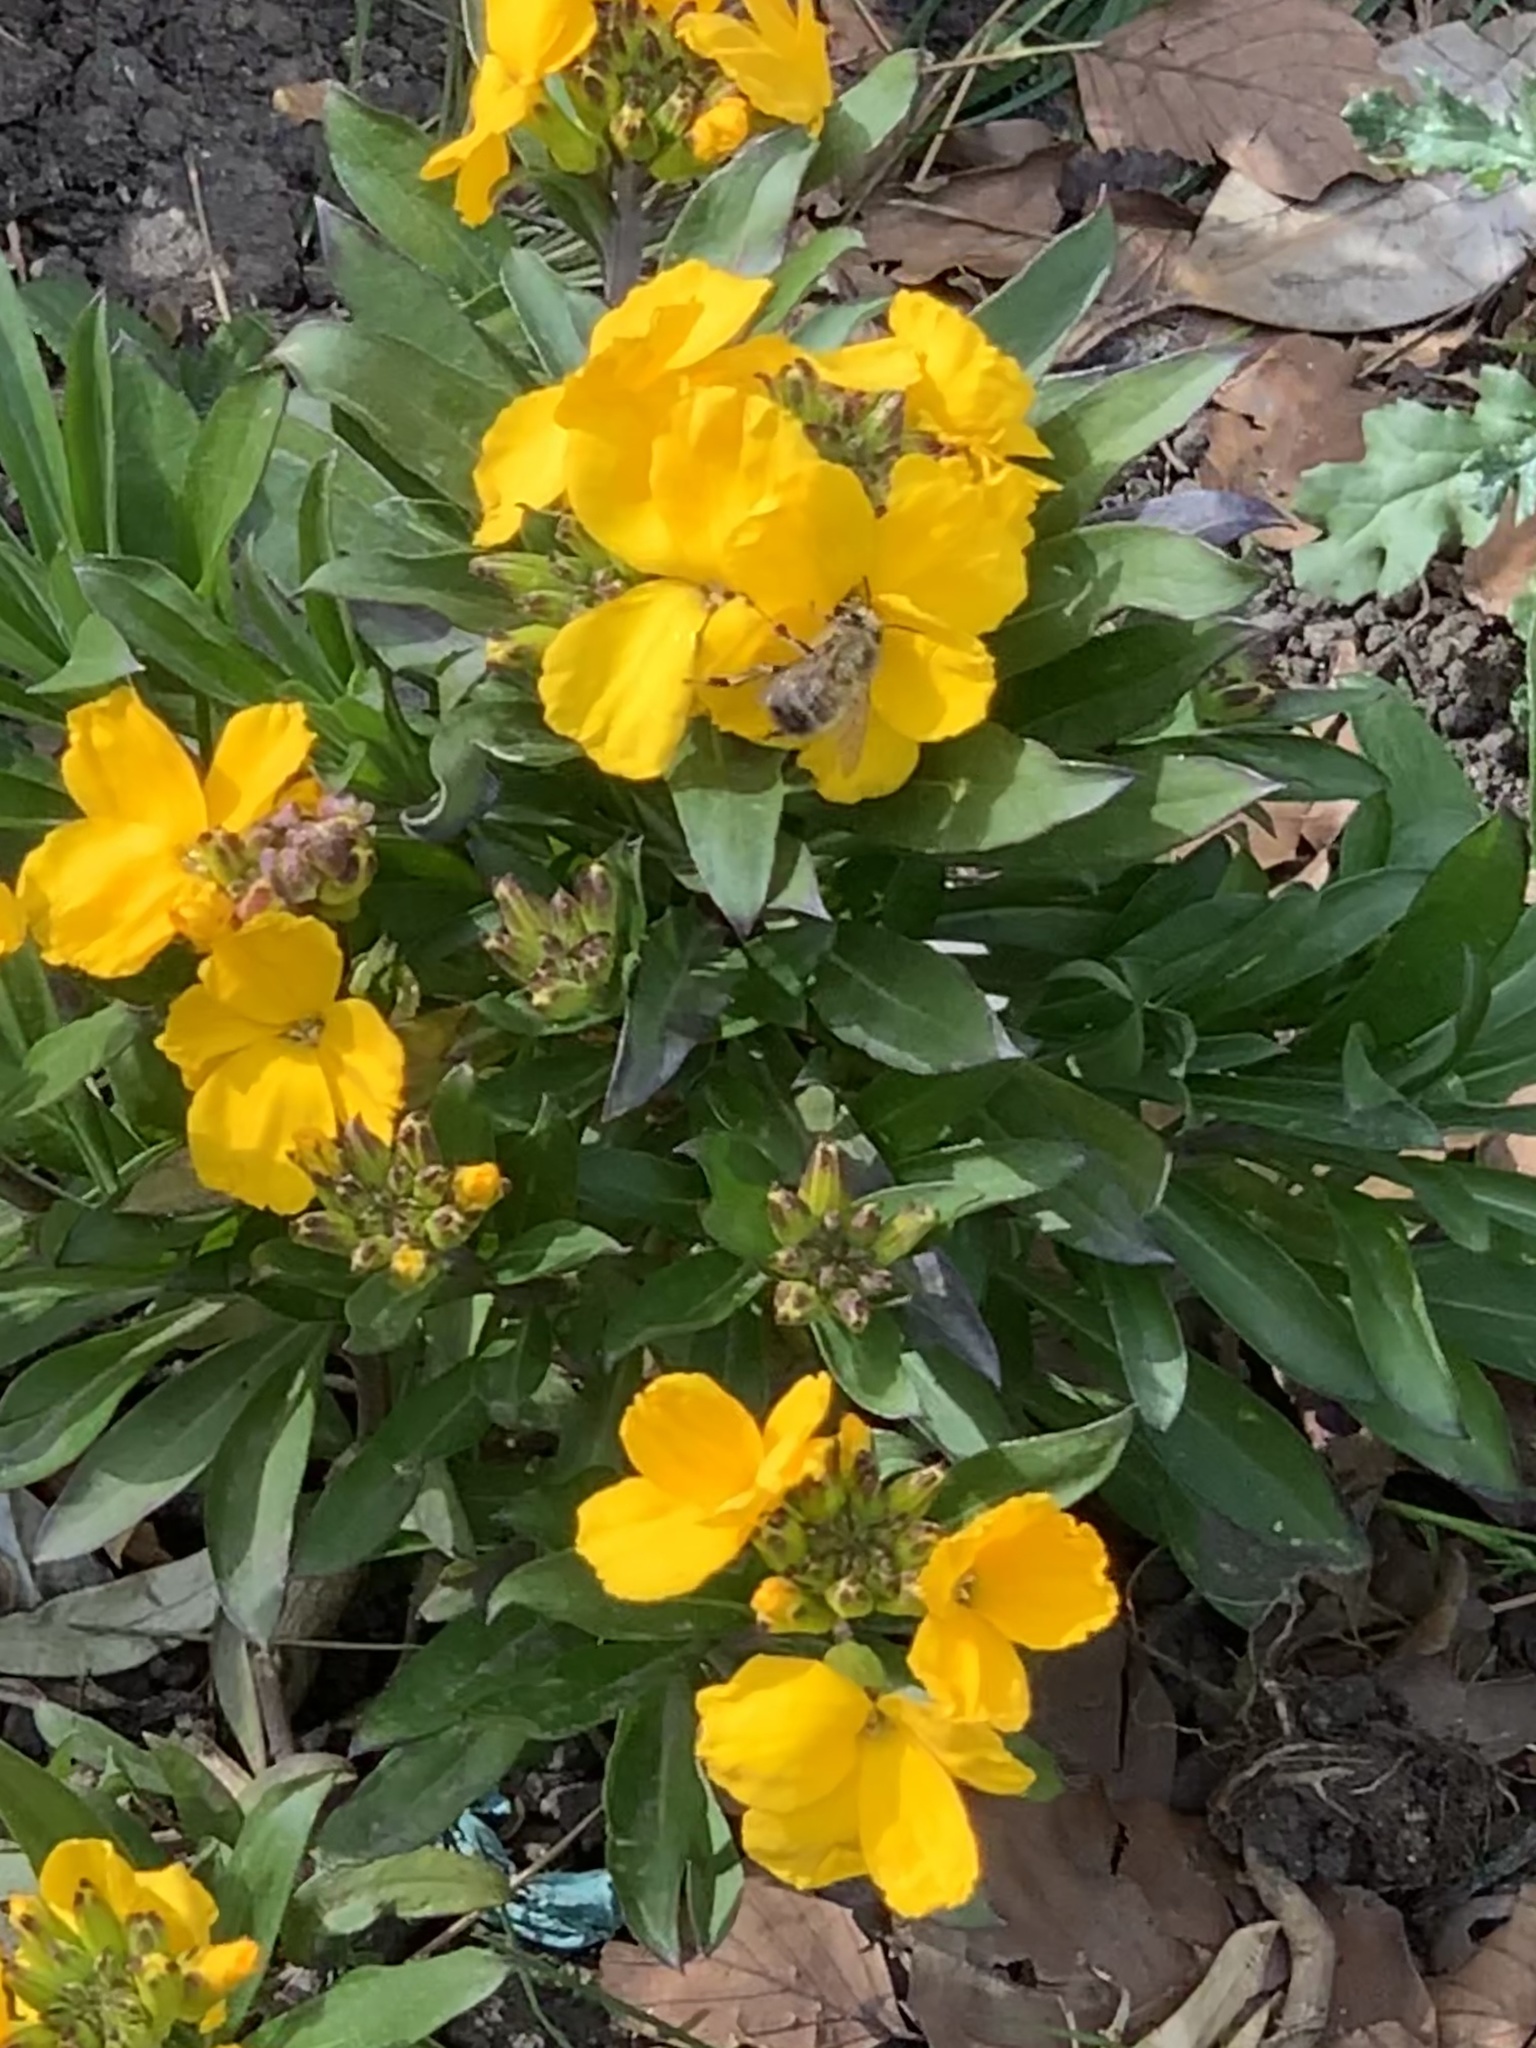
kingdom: Animalia
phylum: Arthropoda
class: Insecta
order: Hymenoptera
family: Apidae
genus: Anthophora
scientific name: Anthophora plumipes
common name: Hairy-footed flower bee
